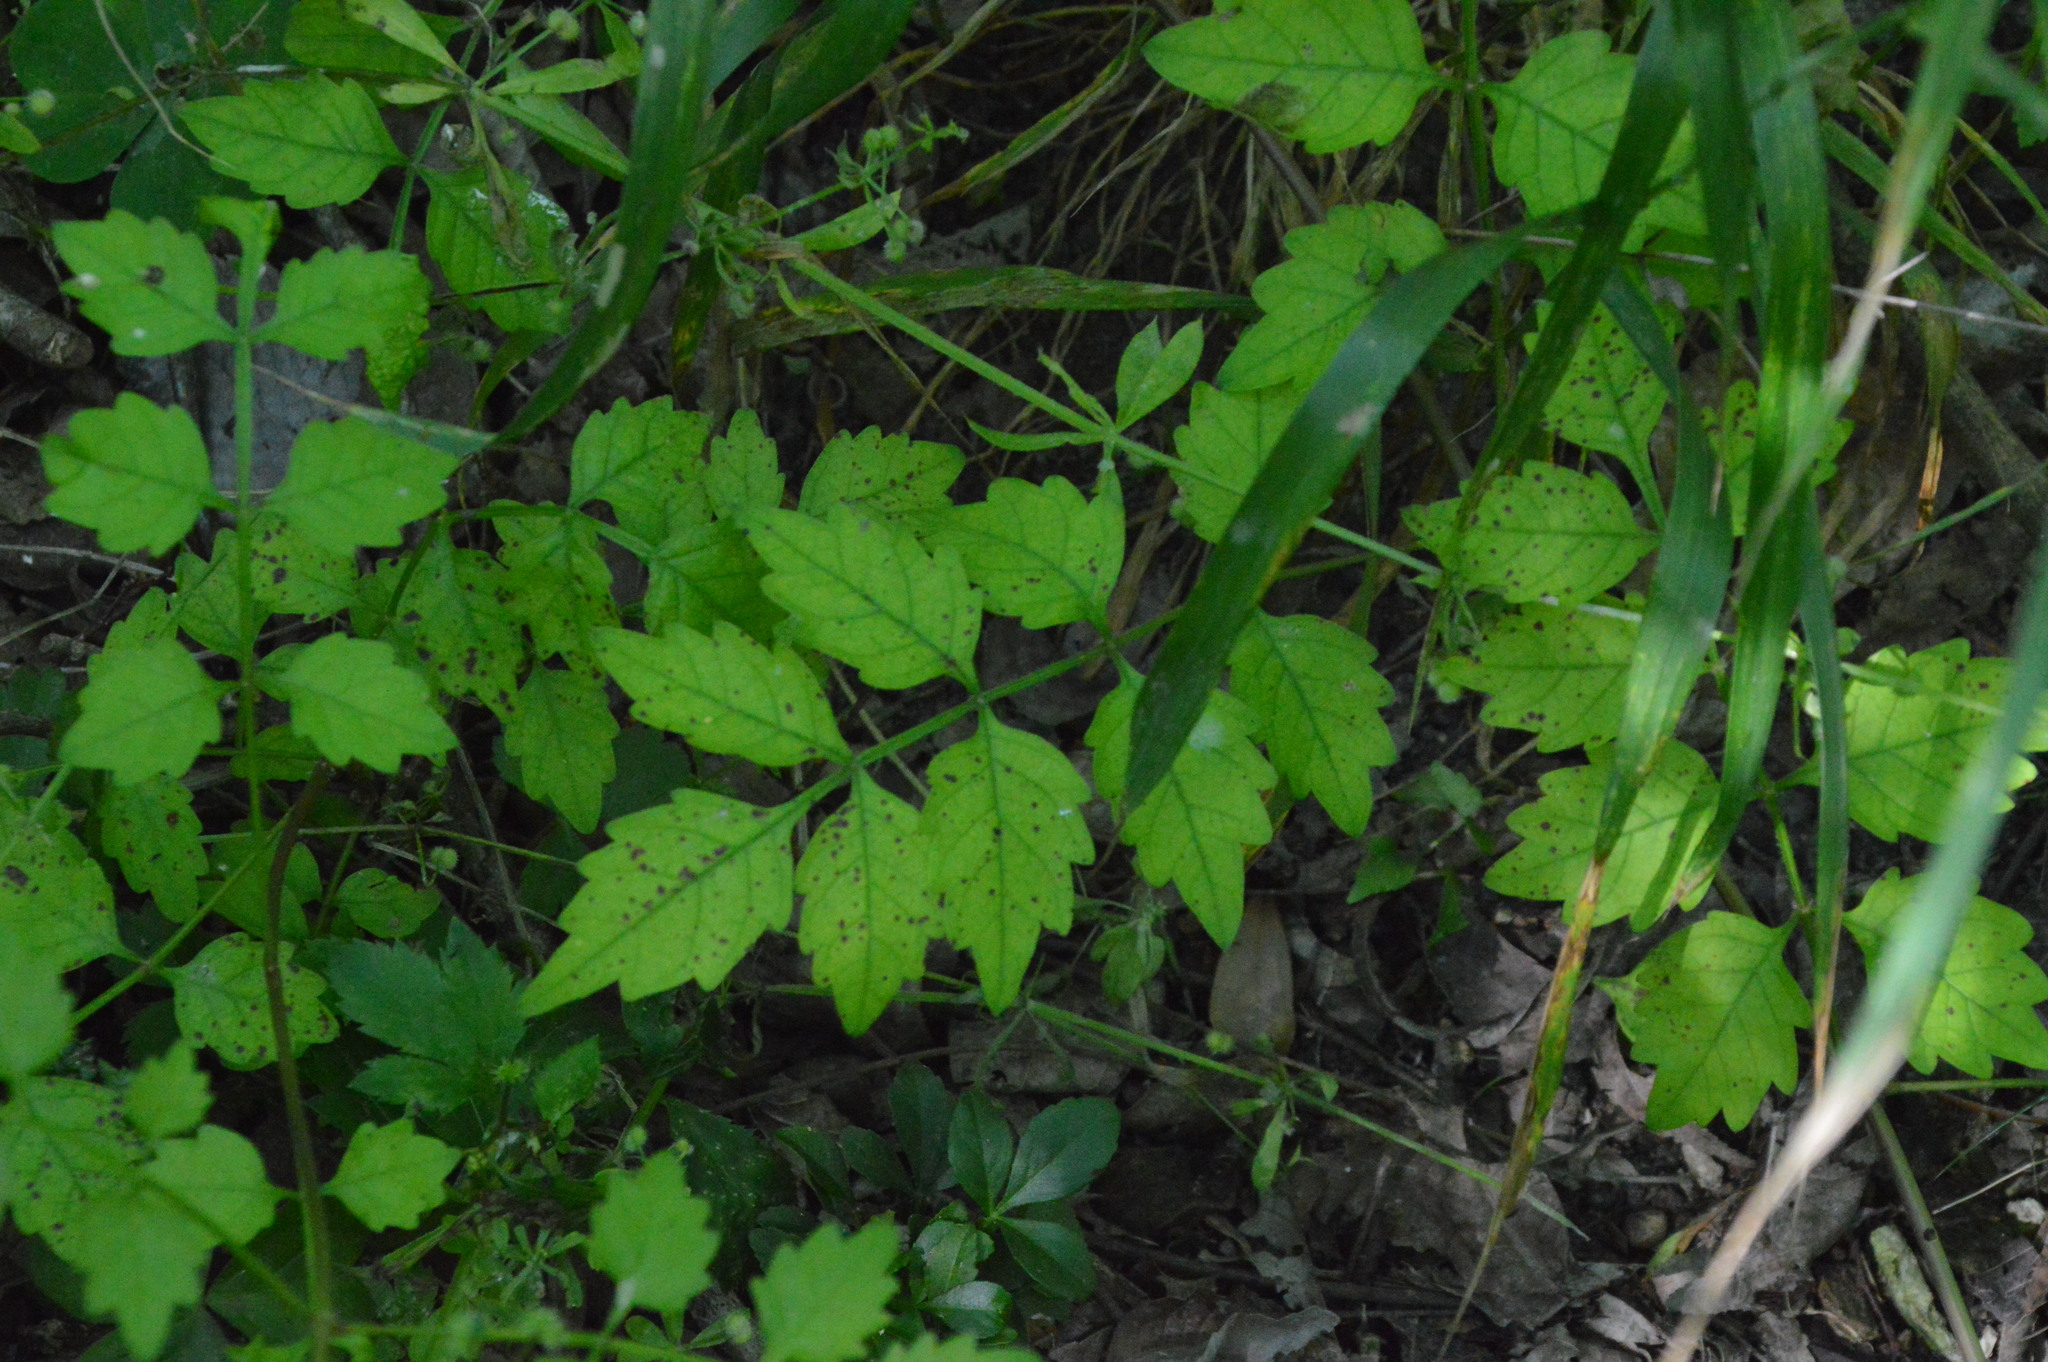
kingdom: Plantae
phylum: Tracheophyta
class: Magnoliopsida
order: Lamiales
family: Bignoniaceae
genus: Campsis
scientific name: Campsis radicans
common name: Trumpet-creeper
